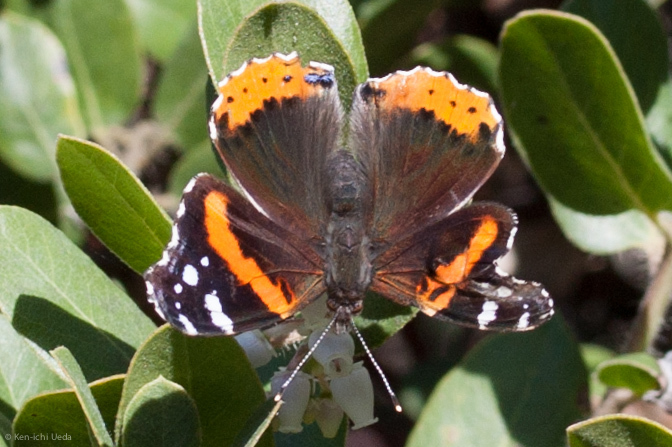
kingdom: Animalia
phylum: Arthropoda
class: Insecta
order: Lepidoptera
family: Nymphalidae
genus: Vanessa
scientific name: Vanessa atalanta
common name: Red admiral
